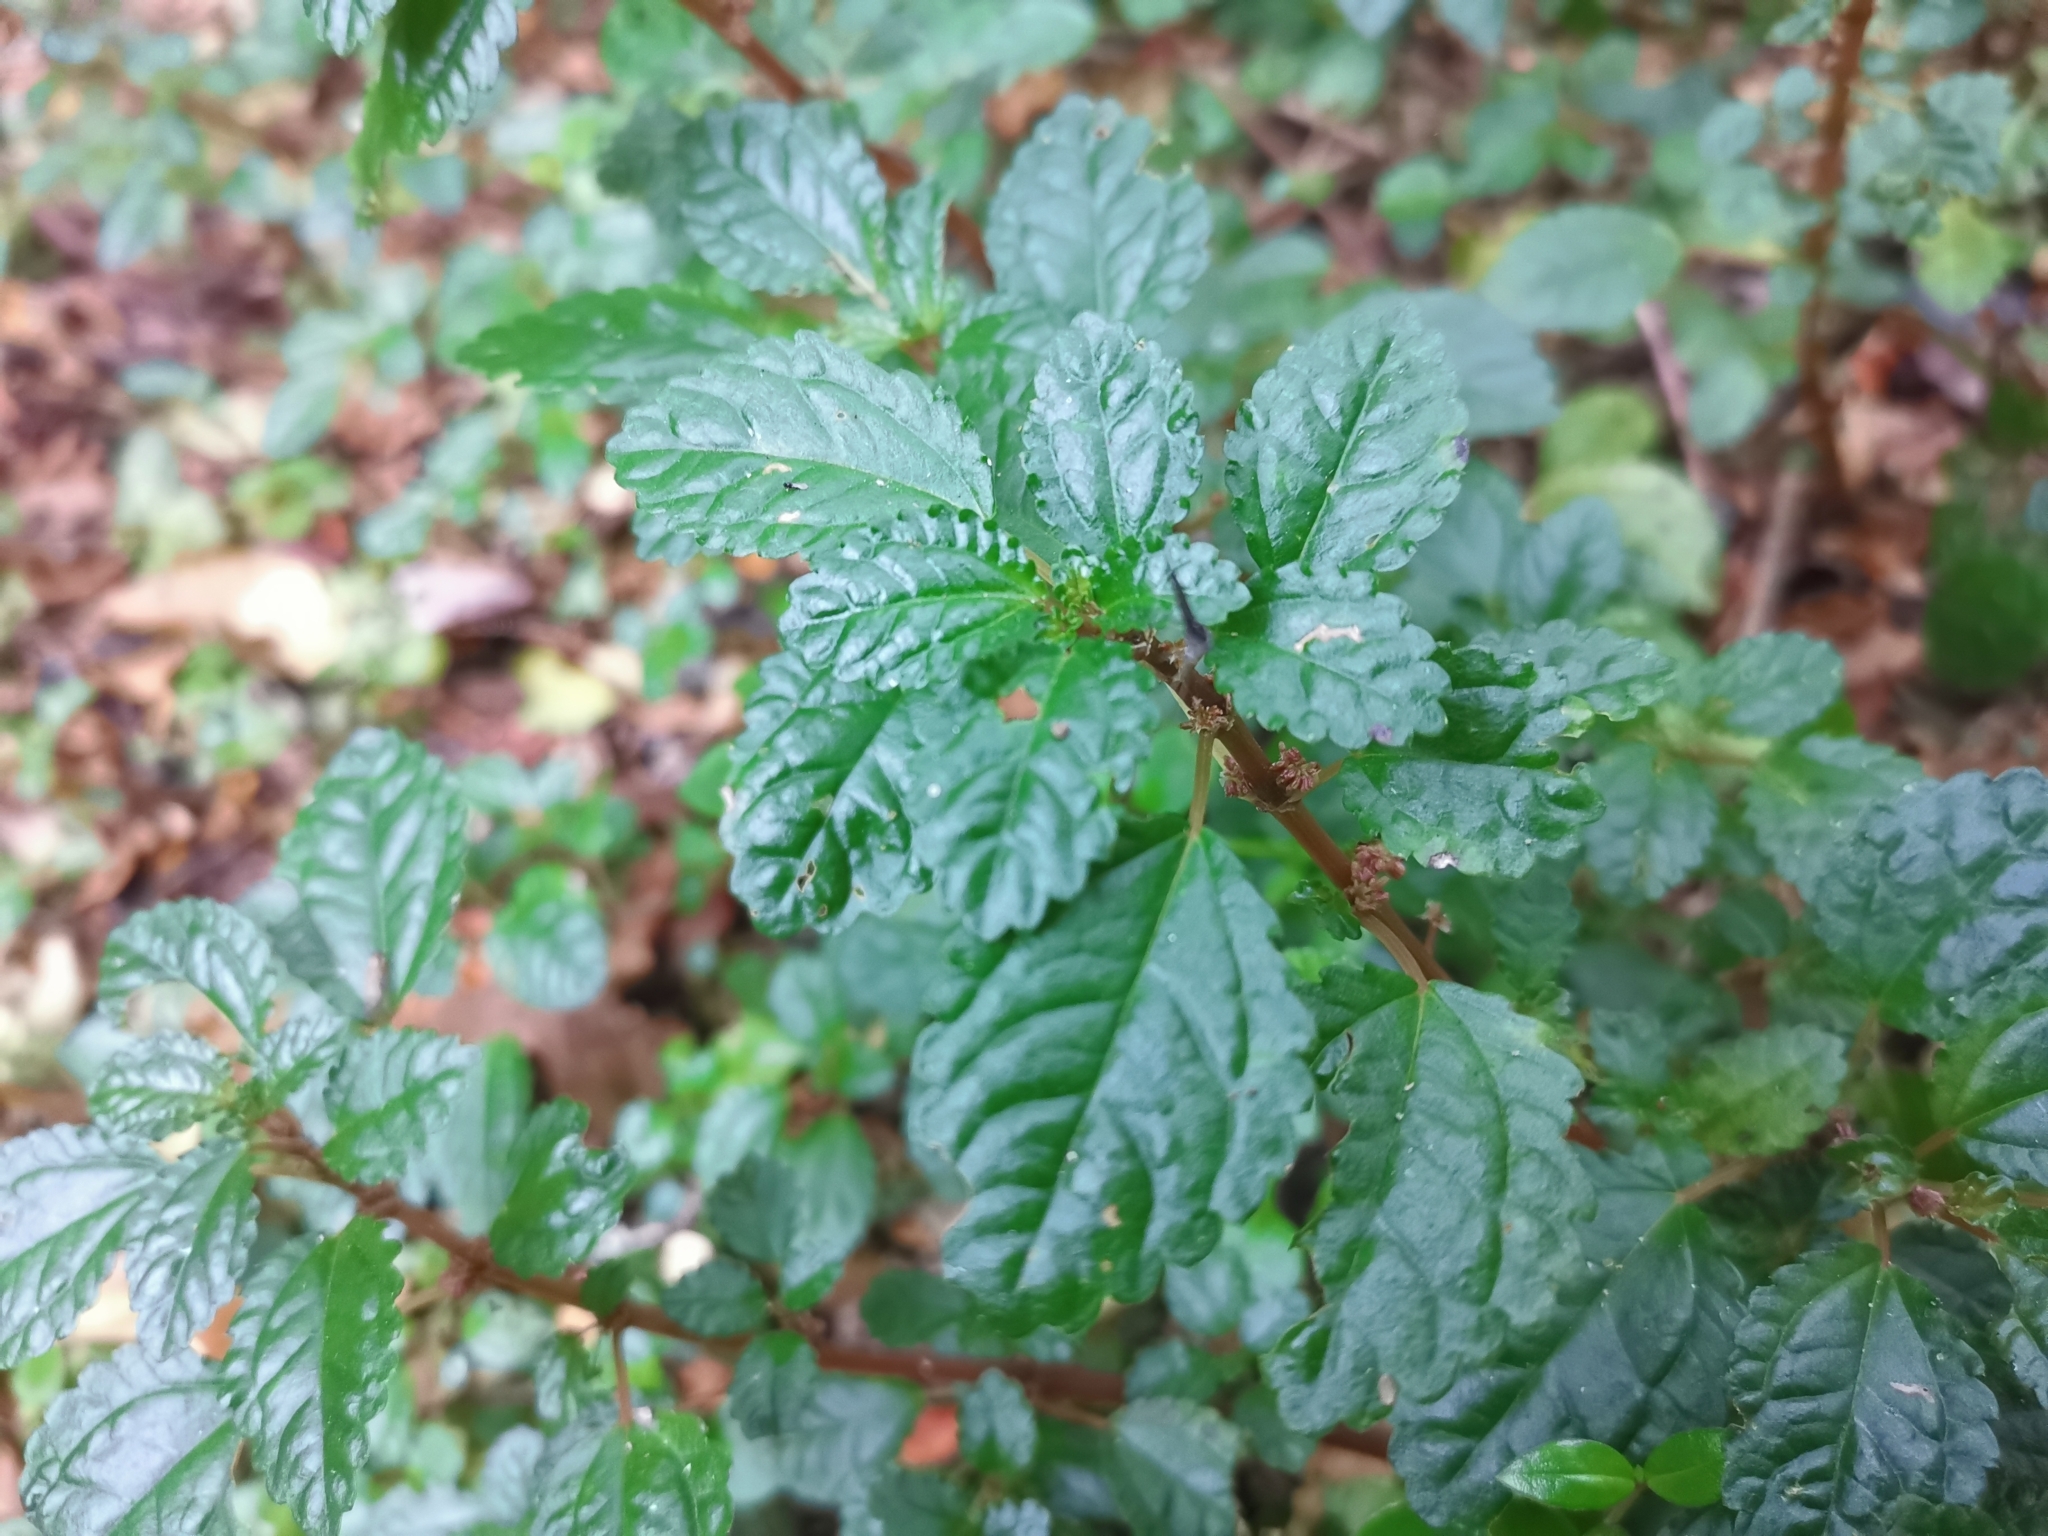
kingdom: Plantae
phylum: Tracheophyta
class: Magnoliopsida
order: Rosales
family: Urticaceae
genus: Pilea
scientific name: Pilea elliptica
